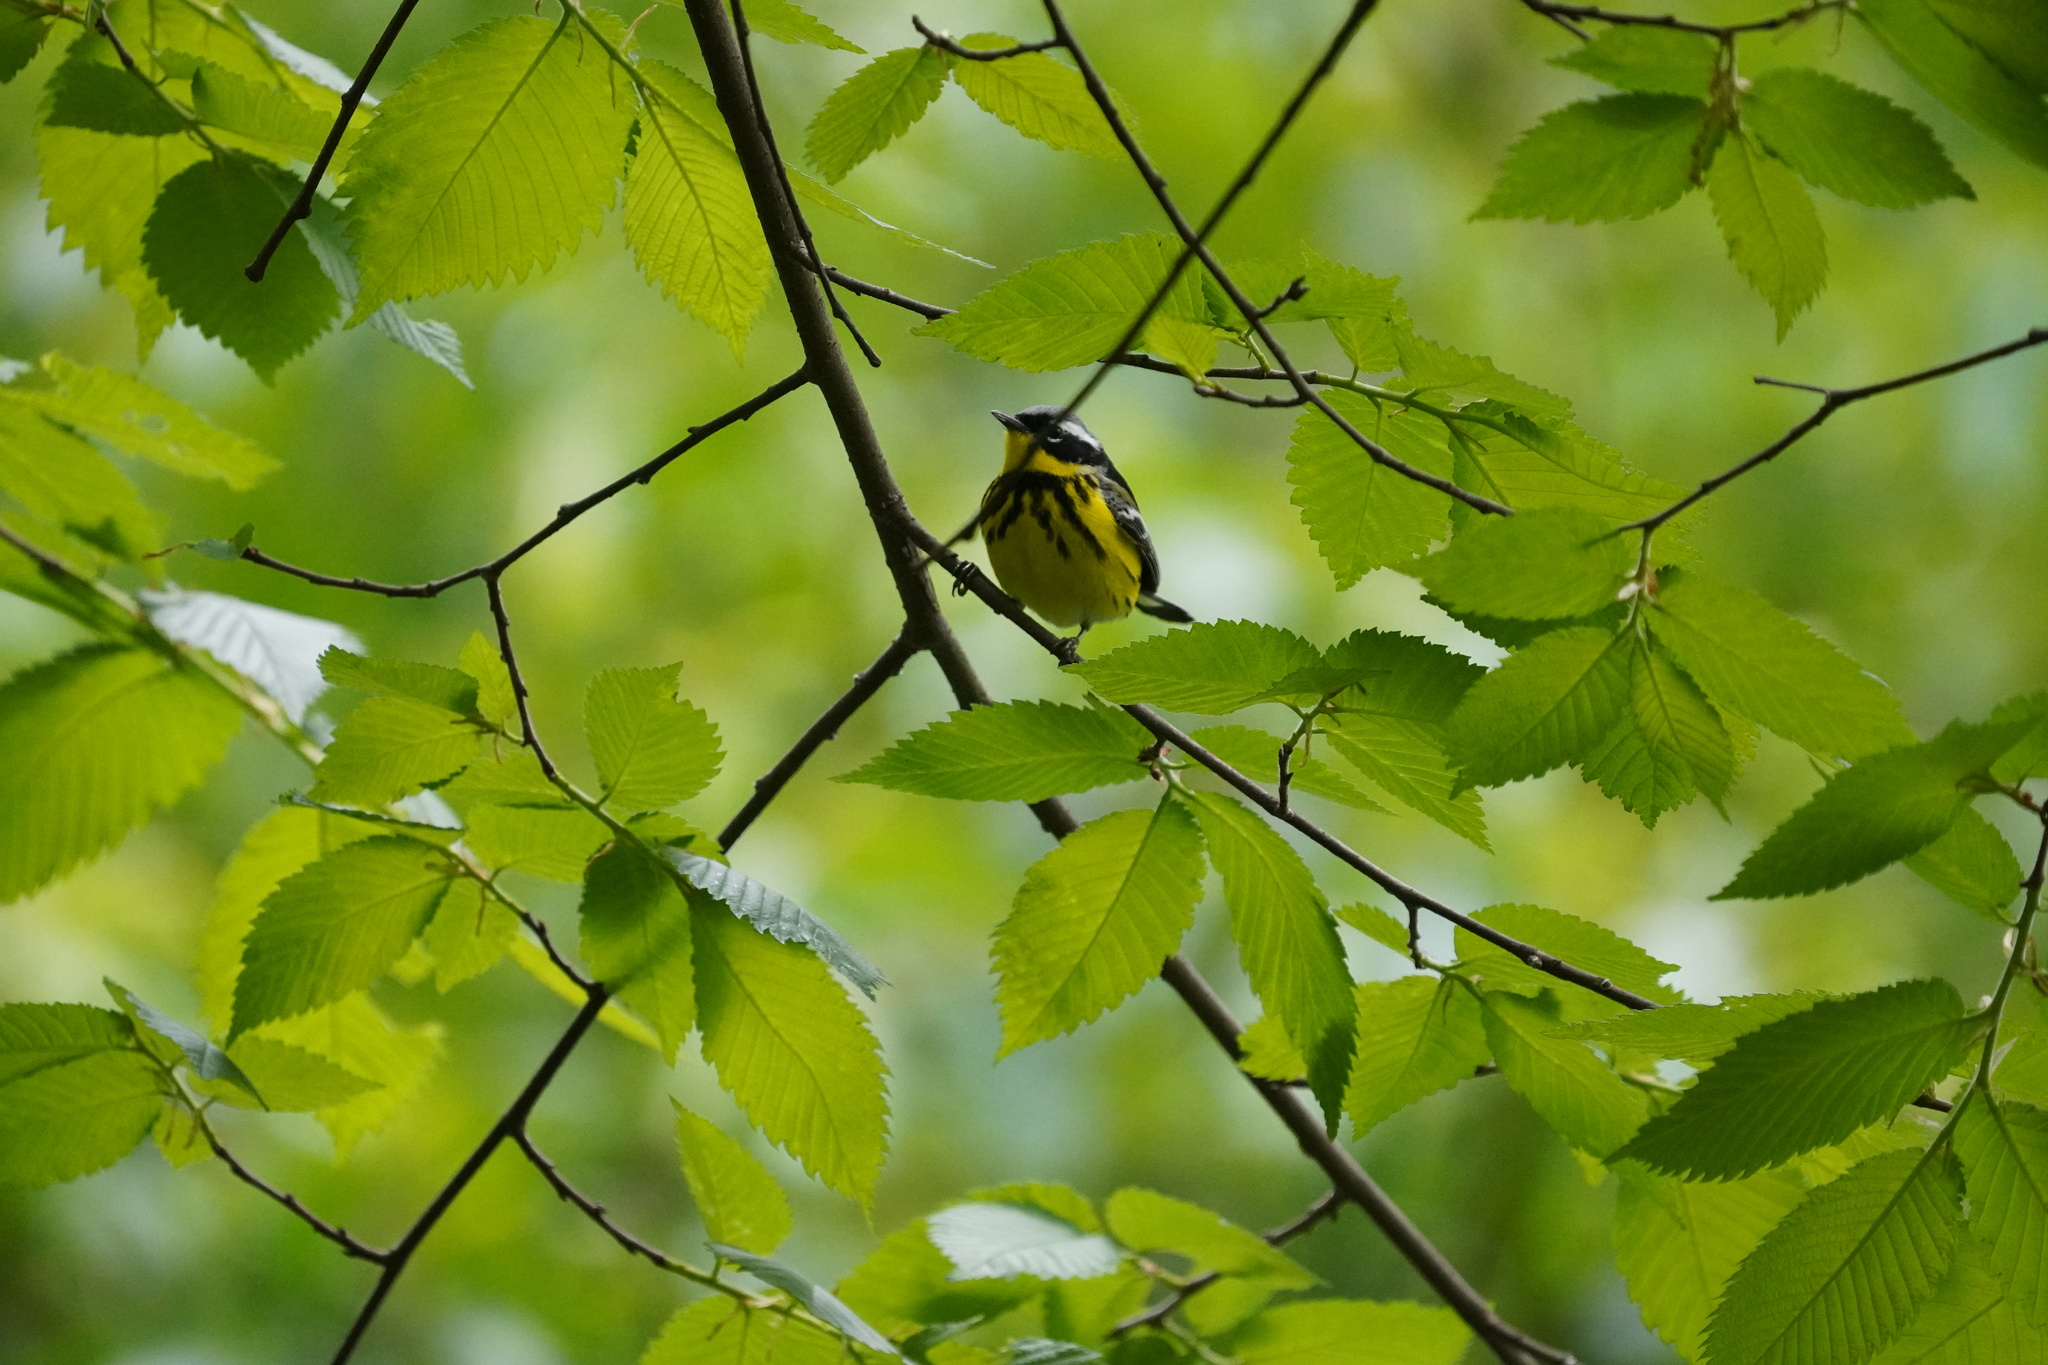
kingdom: Animalia
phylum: Chordata
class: Aves
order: Passeriformes
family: Parulidae
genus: Setophaga
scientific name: Setophaga magnolia
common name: Magnolia warbler
